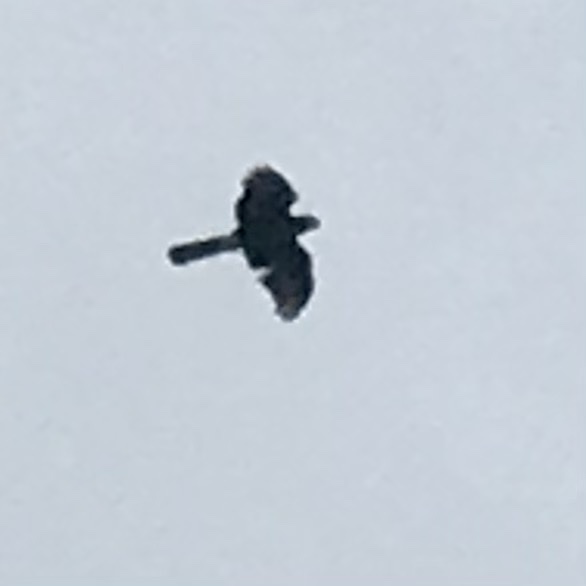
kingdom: Animalia
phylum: Chordata
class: Aves
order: Accipitriformes
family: Accipitridae
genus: Accipiter
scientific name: Accipiter cooperii
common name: Cooper's hawk
